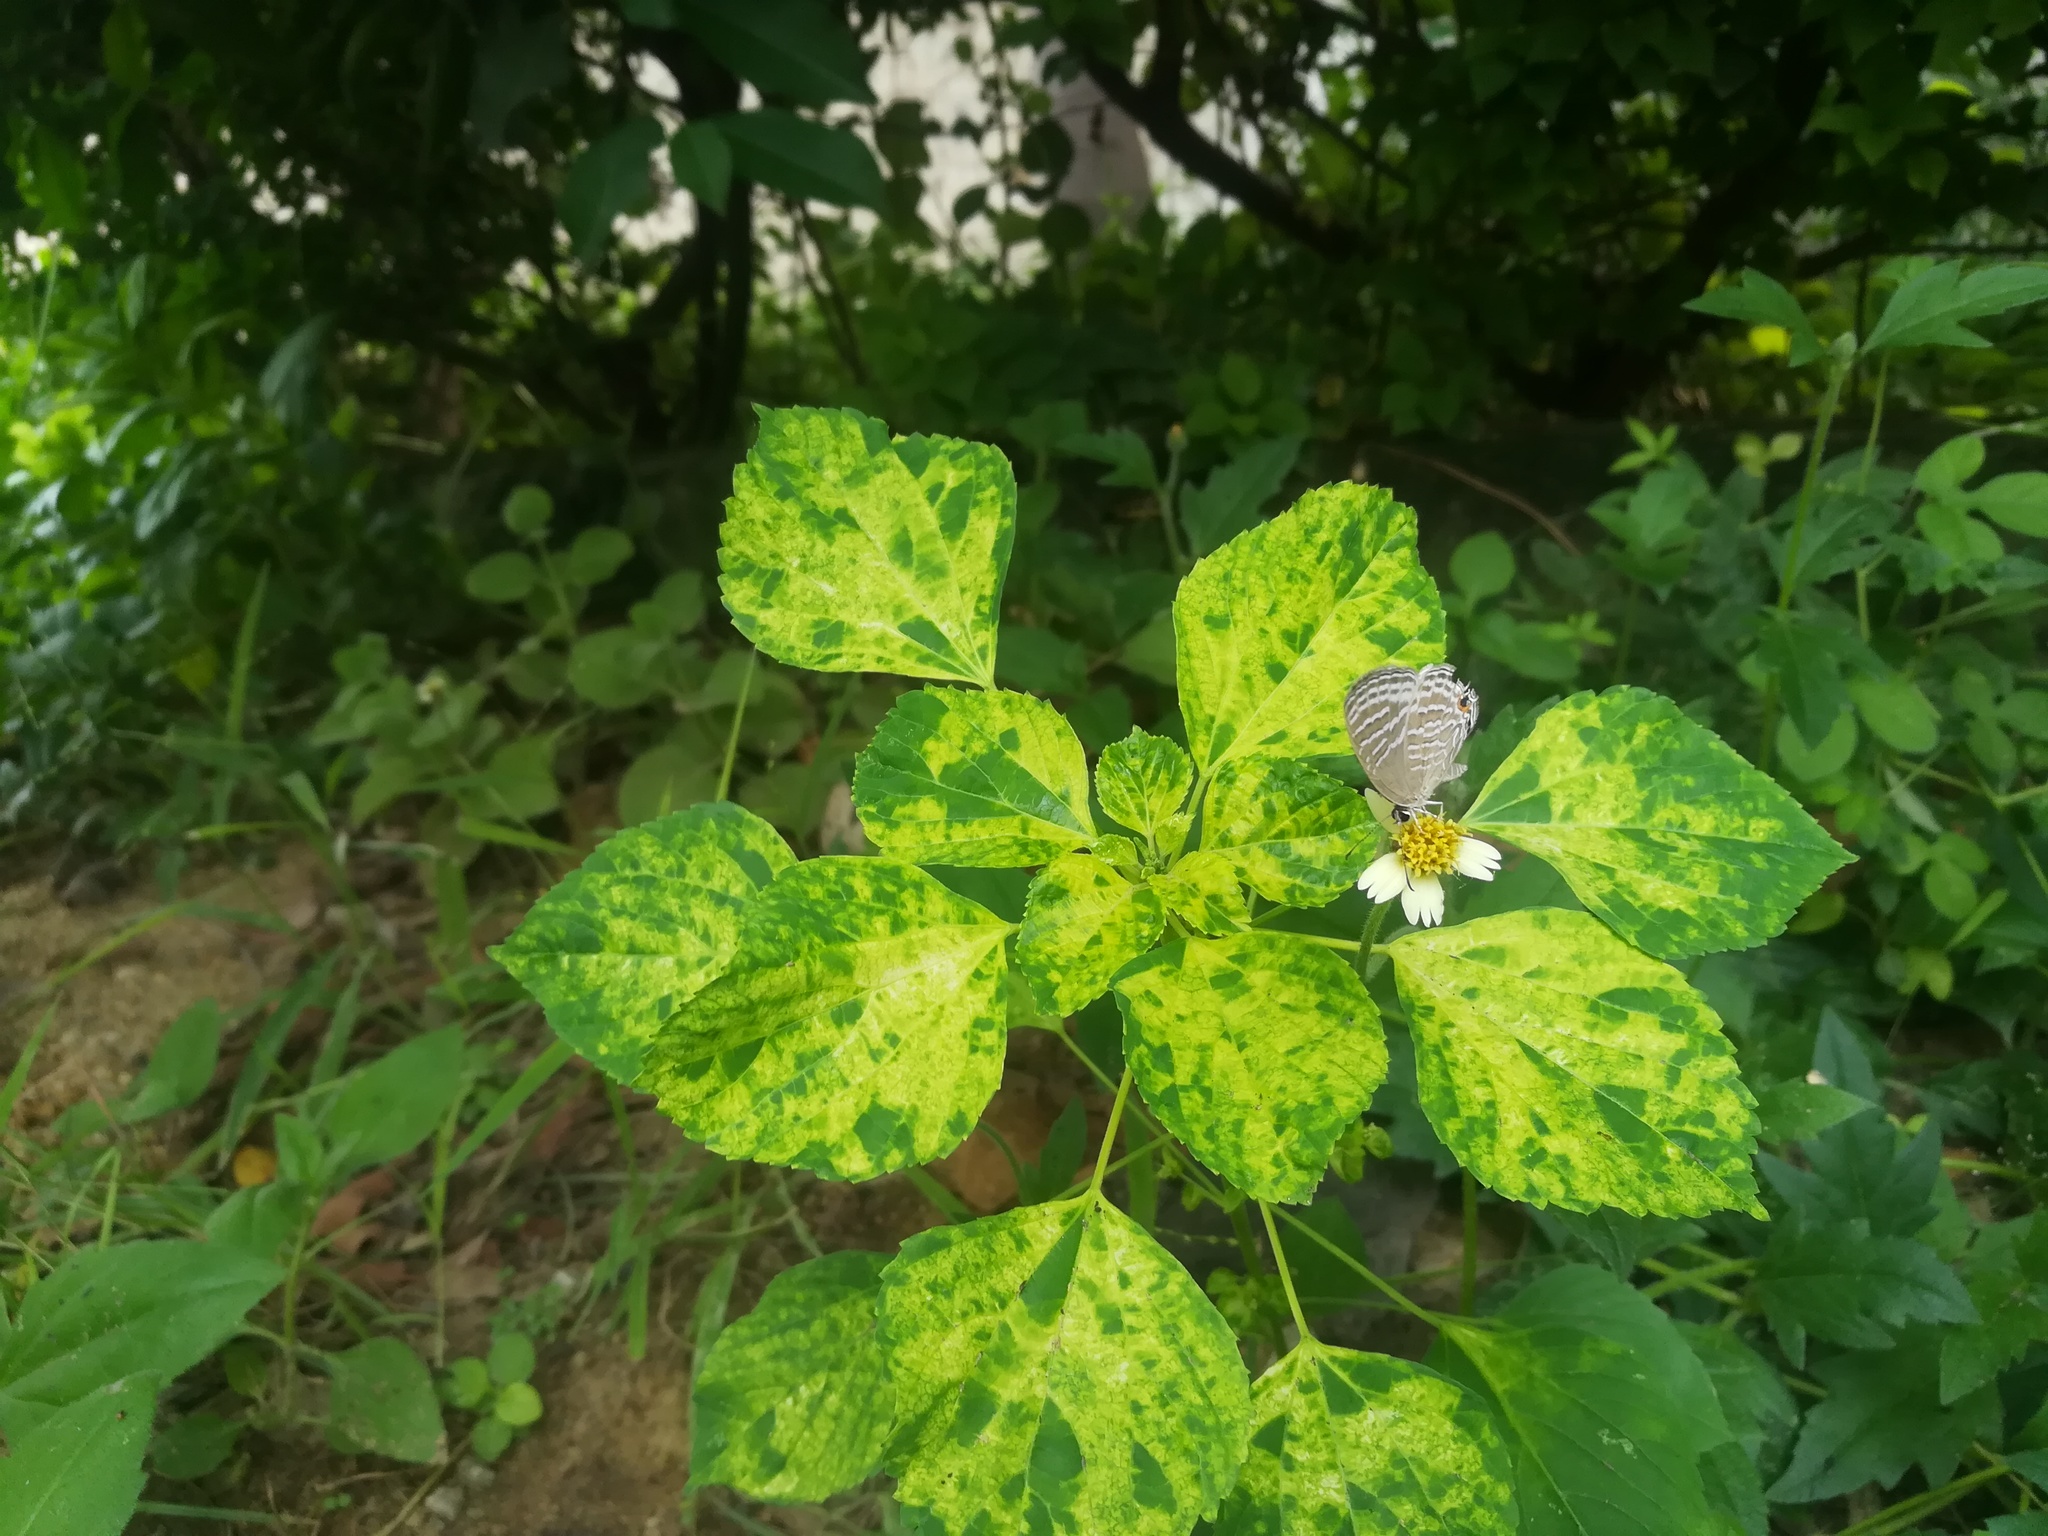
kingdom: Animalia
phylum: Arthropoda
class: Insecta
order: Lepidoptera
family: Lycaenidae
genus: Jamides
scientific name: Jamides celeno
